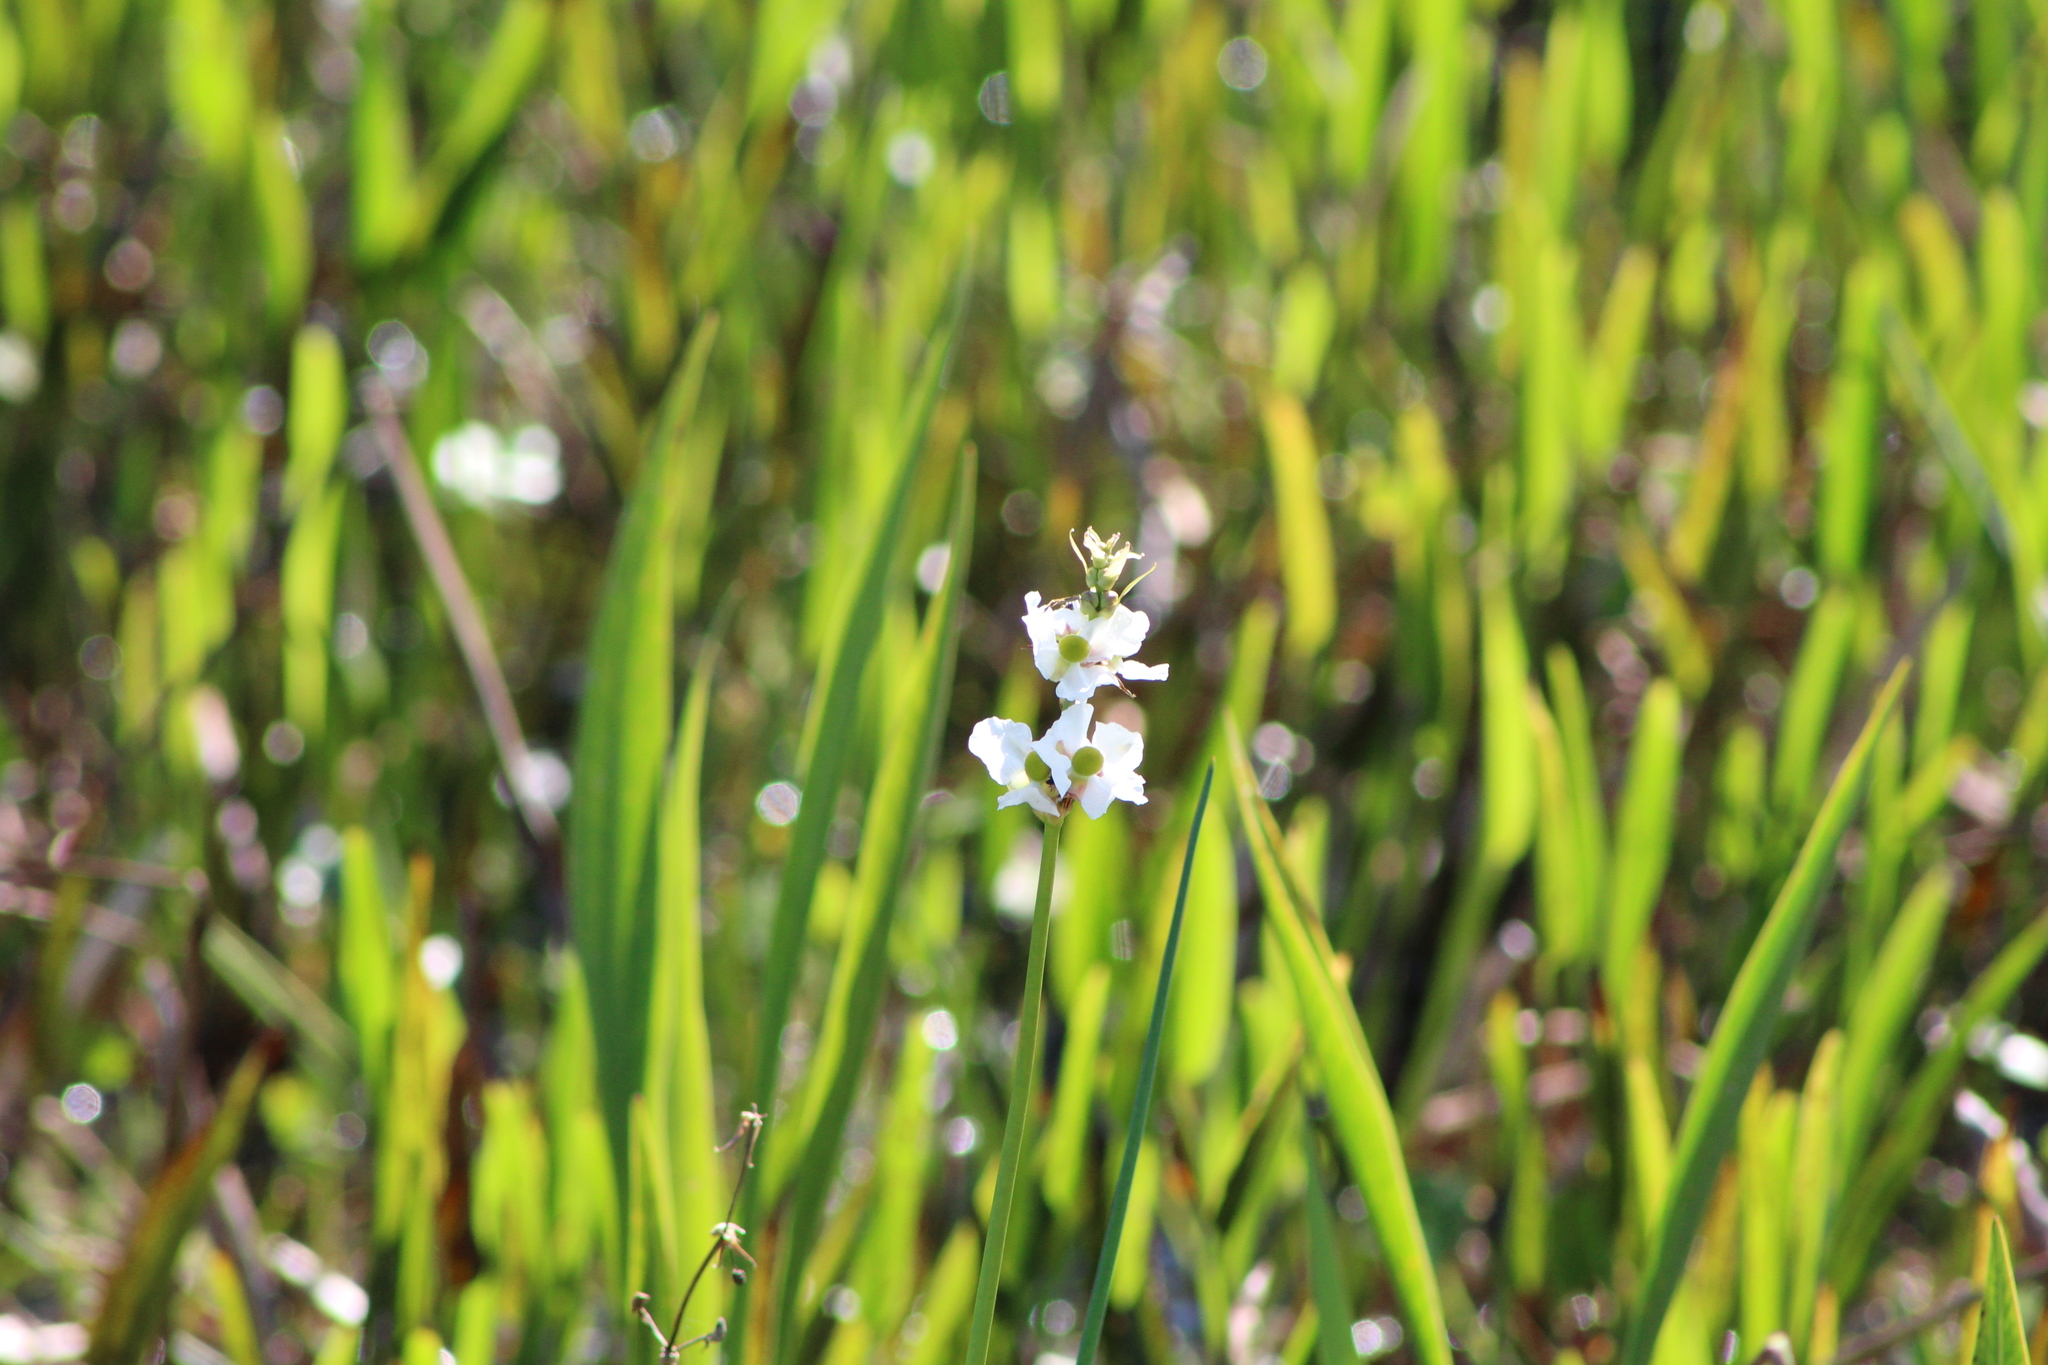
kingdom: Plantae
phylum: Tracheophyta
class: Liliopsida
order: Alismatales
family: Alismataceae
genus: Sagittaria
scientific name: Sagittaria lancifolia
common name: Lance-leaf arrowhead
